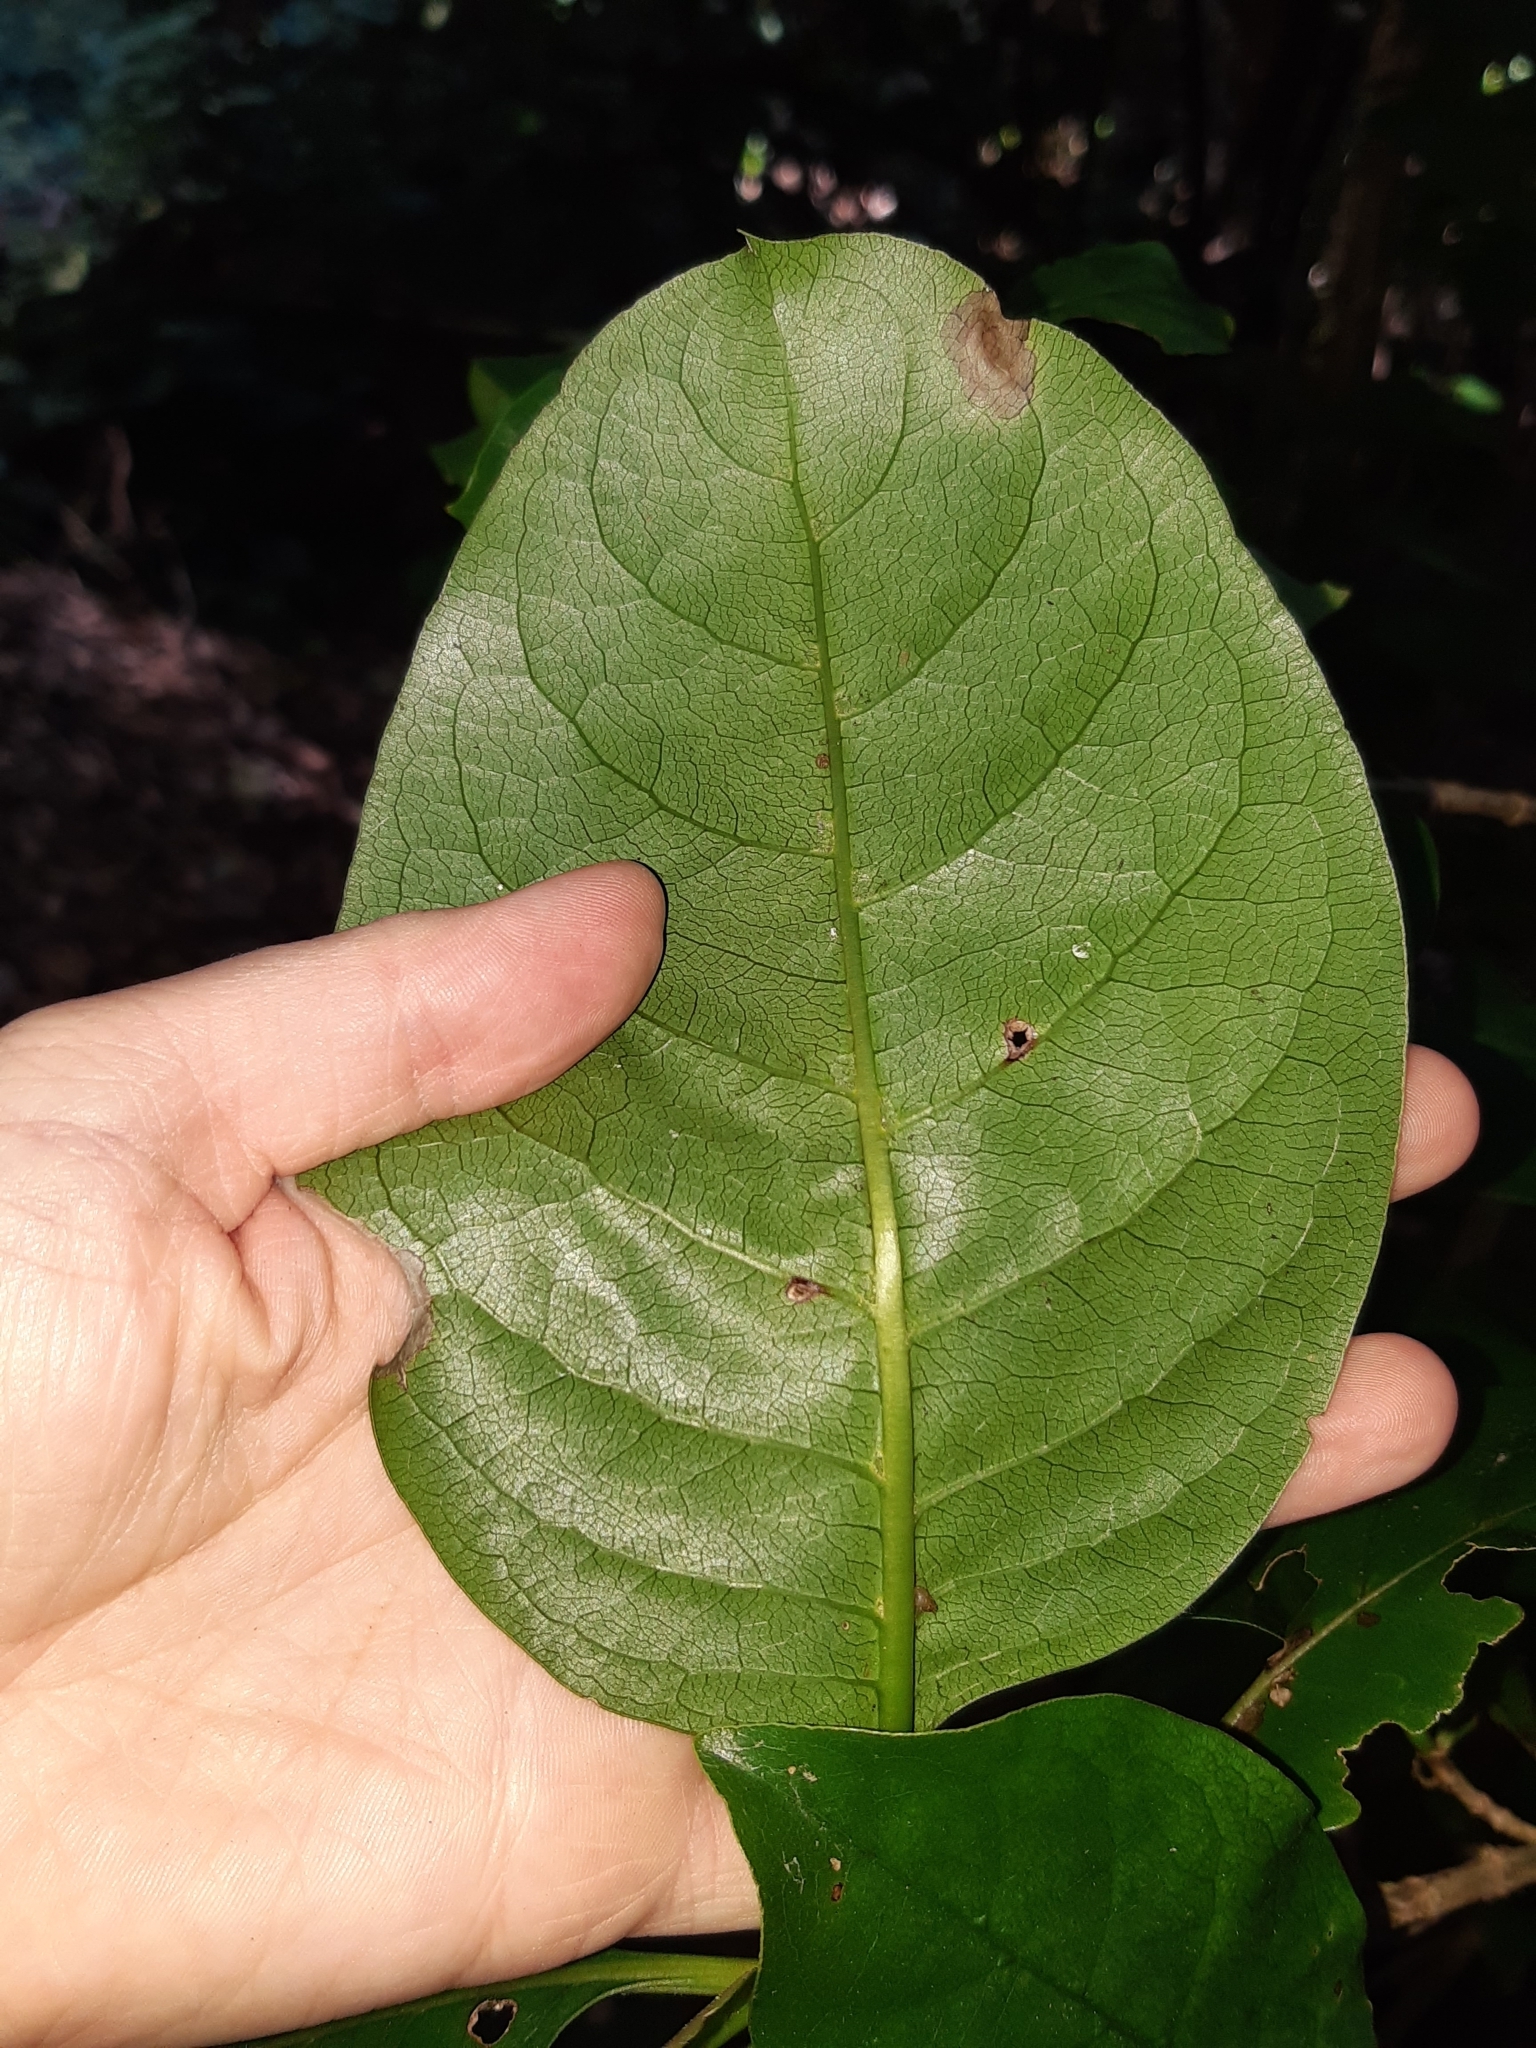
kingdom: Plantae
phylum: Tracheophyta
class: Magnoliopsida
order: Gentianales
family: Rubiaceae
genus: Coprosma
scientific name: Coprosma macrocarpa
